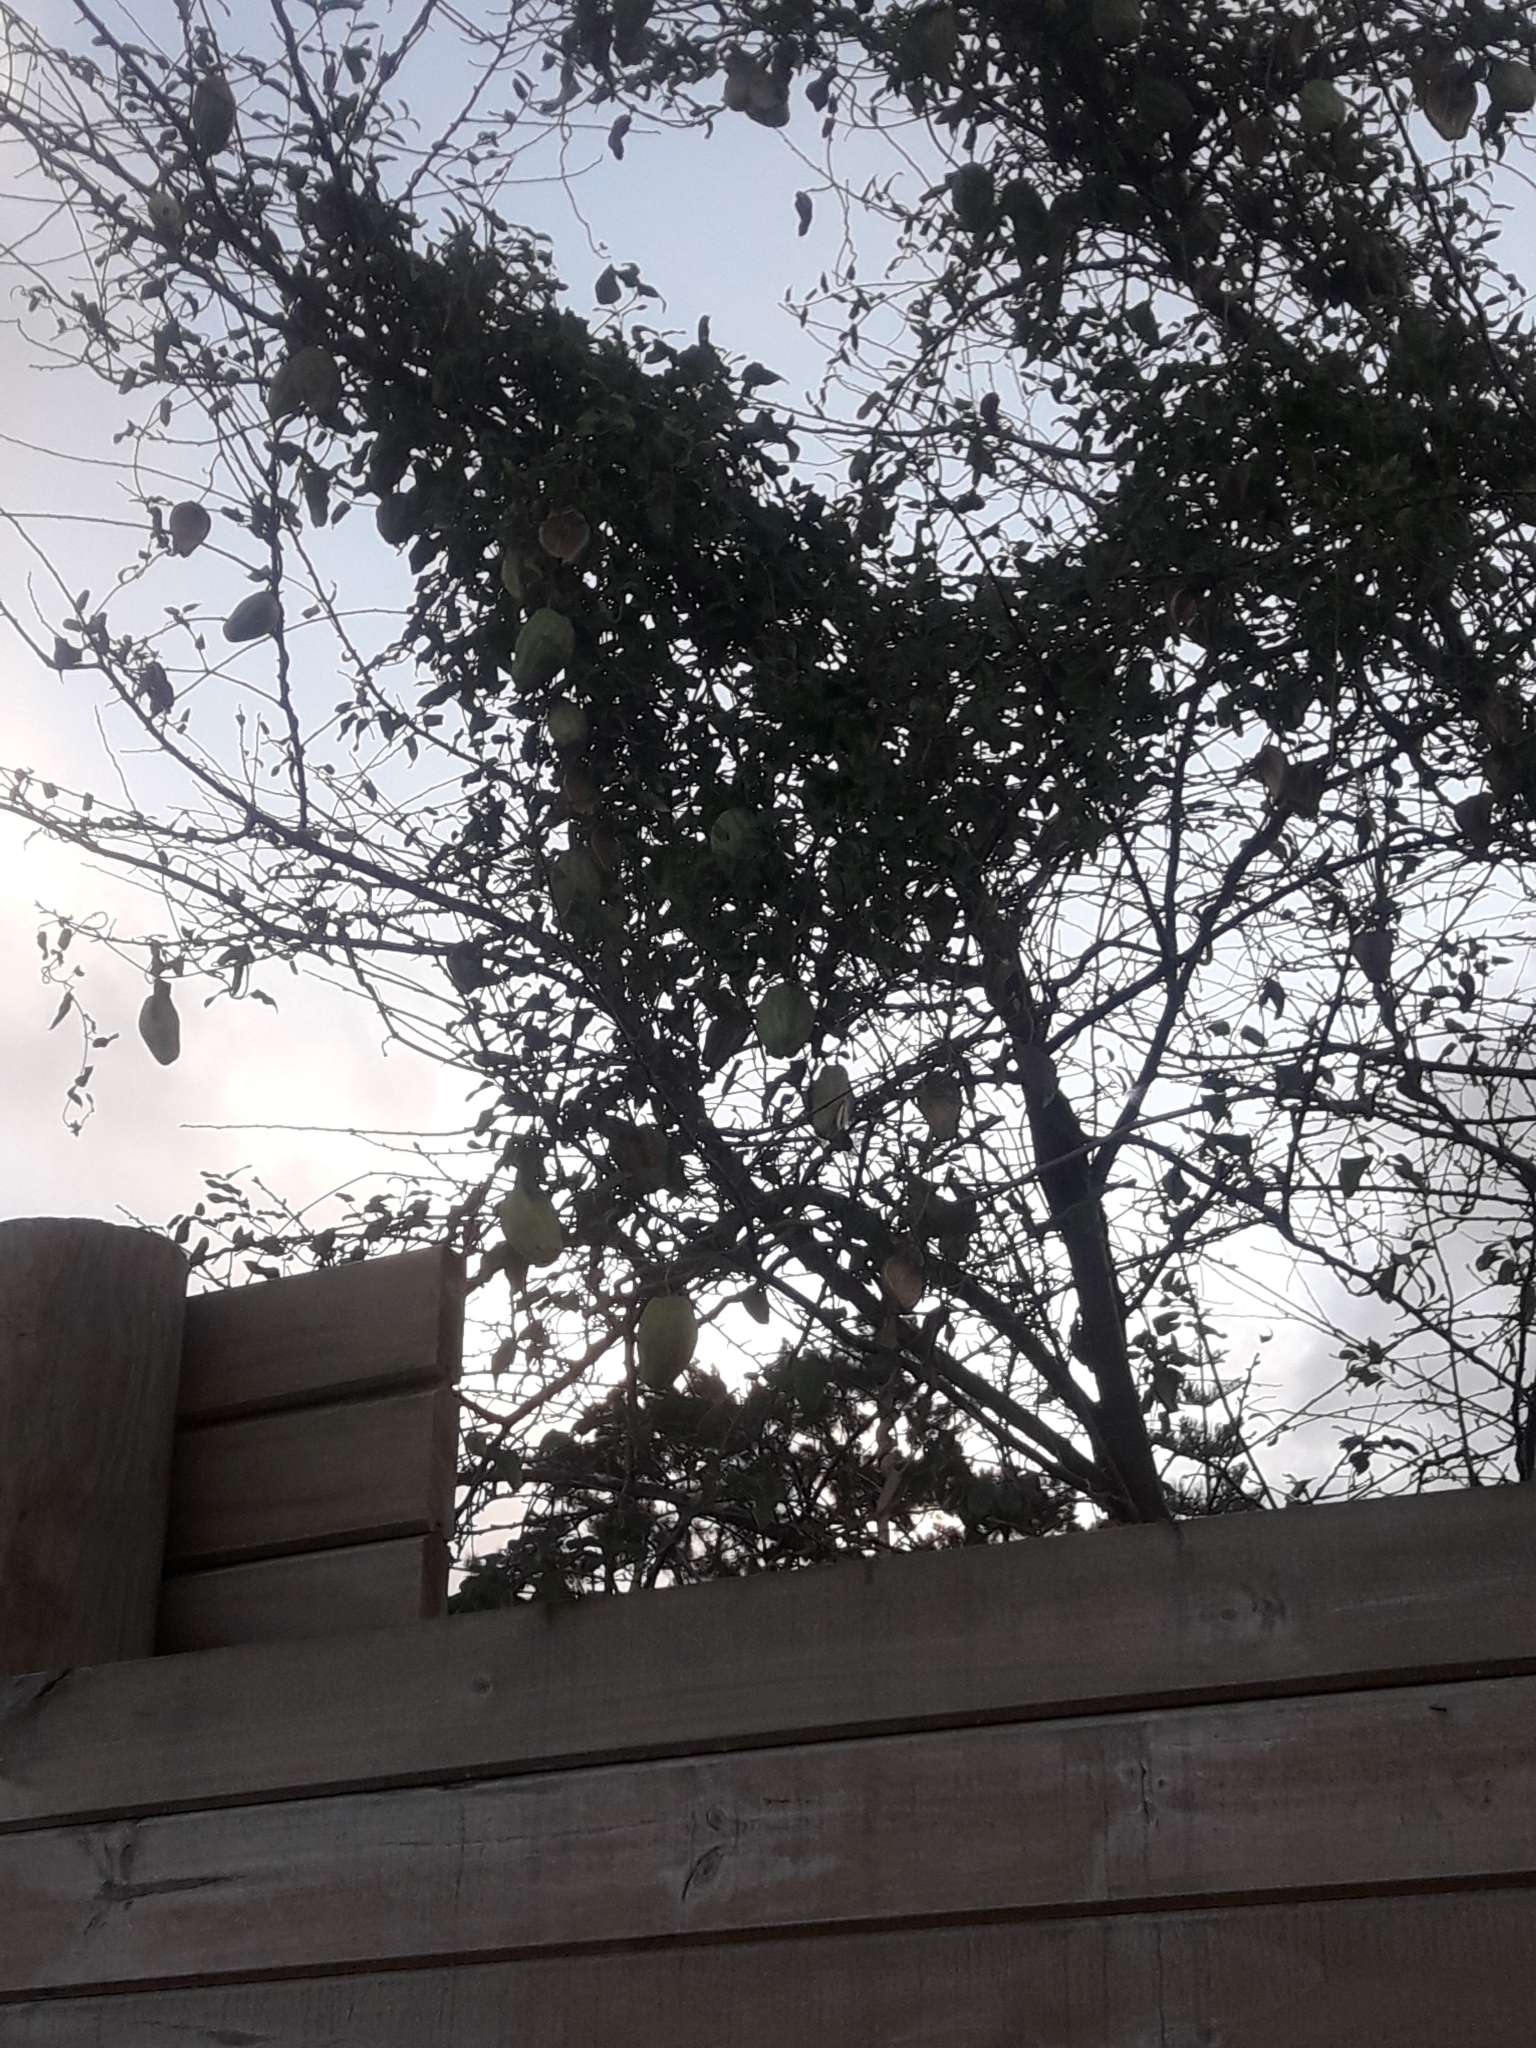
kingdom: Plantae
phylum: Tracheophyta
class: Magnoliopsida
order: Gentianales
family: Apocynaceae
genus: Araujia
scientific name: Araujia sericifera
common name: White bladderflower
